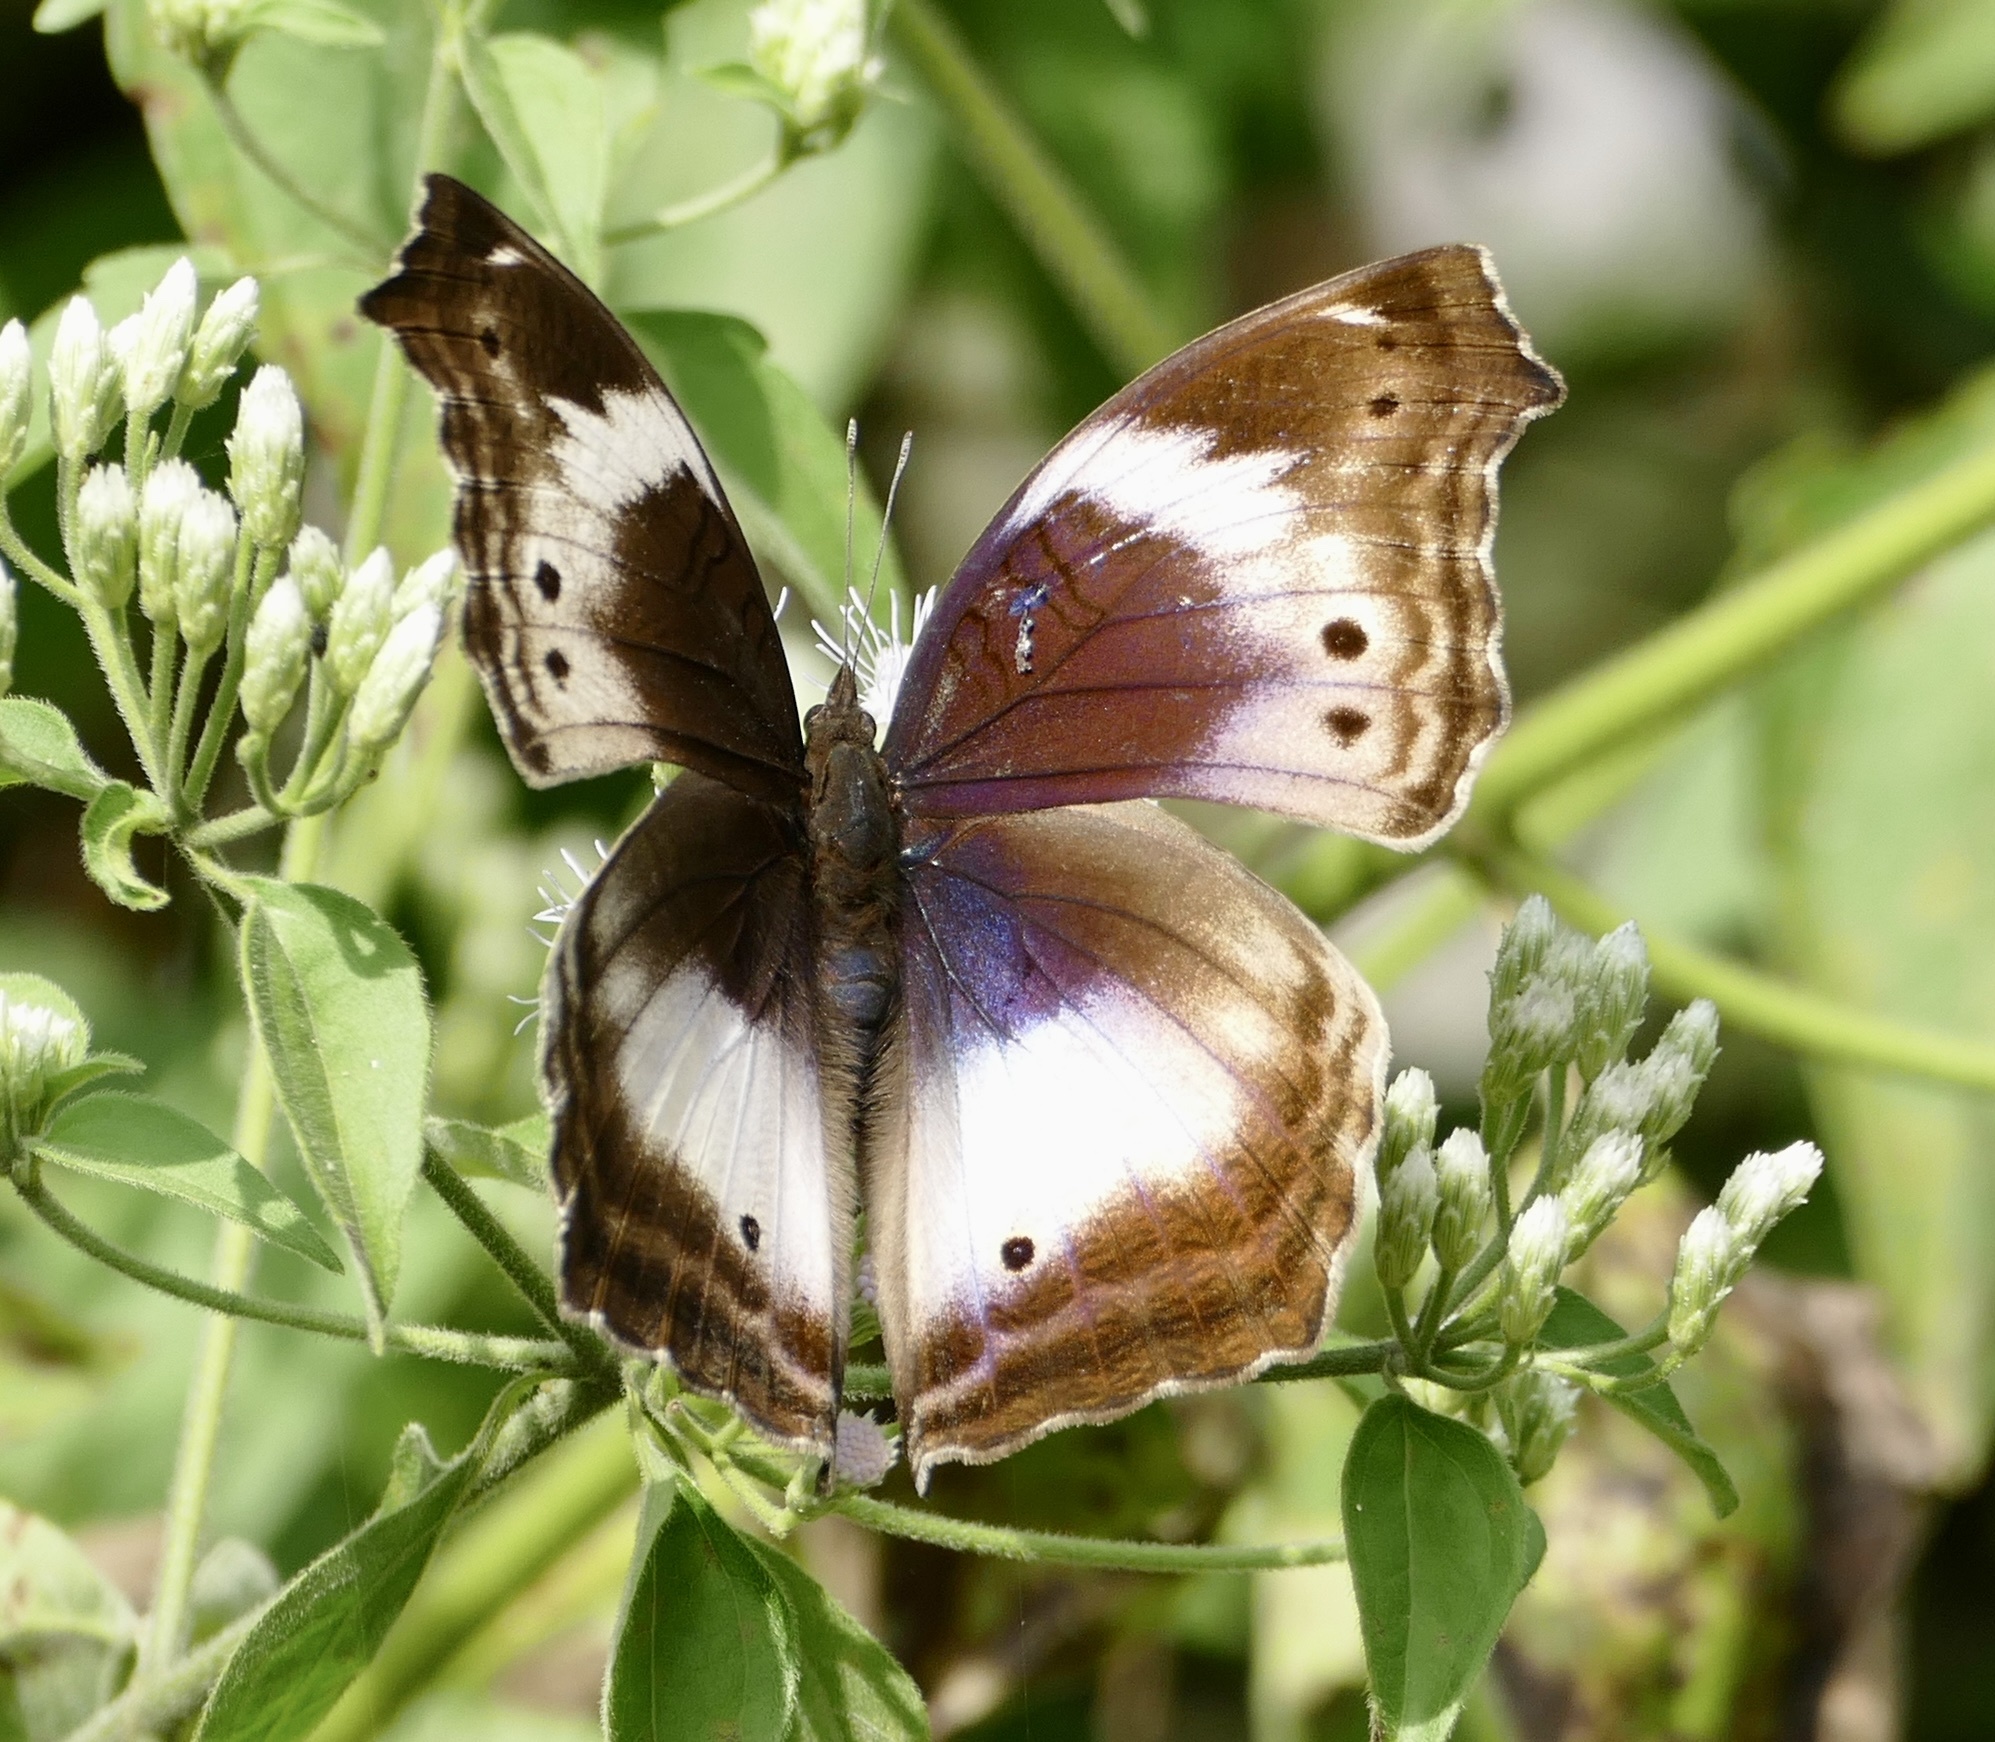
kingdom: Animalia
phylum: Arthropoda
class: Insecta
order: Lepidoptera
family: Nymphalidae
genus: Junonia
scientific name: Junonia
